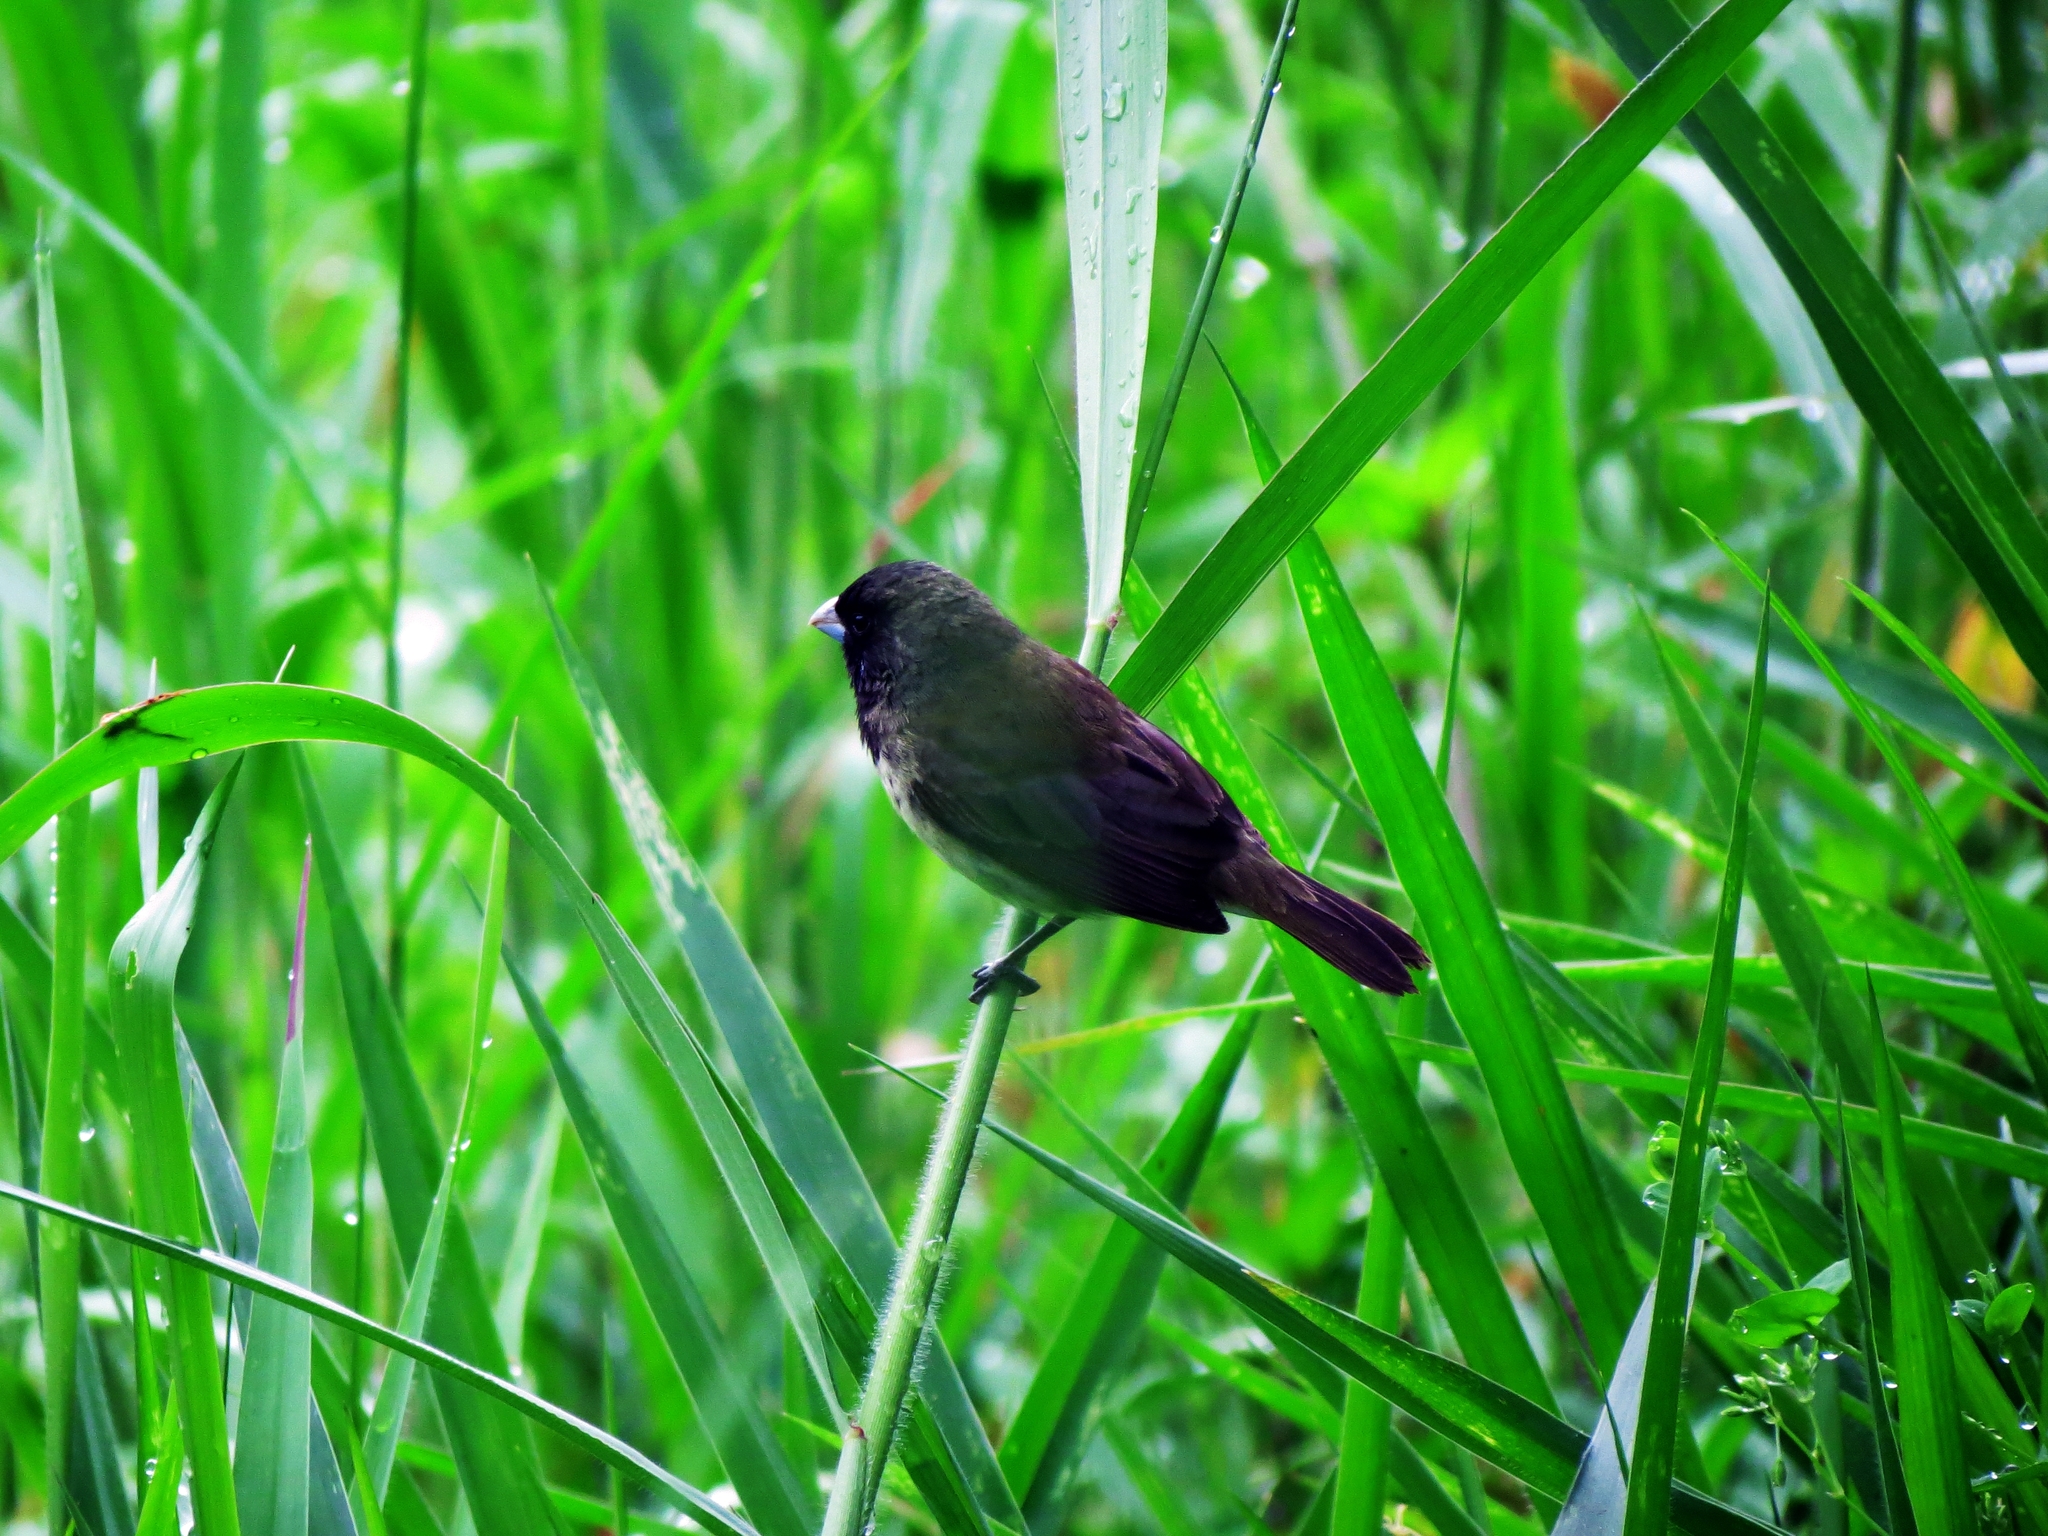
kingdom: Animalia
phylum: Chordata
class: Aves
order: Passeriformes
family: Thraupidae
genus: Sporophila
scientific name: Sporophila nigricollis
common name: Yellow-bellied seedeater
